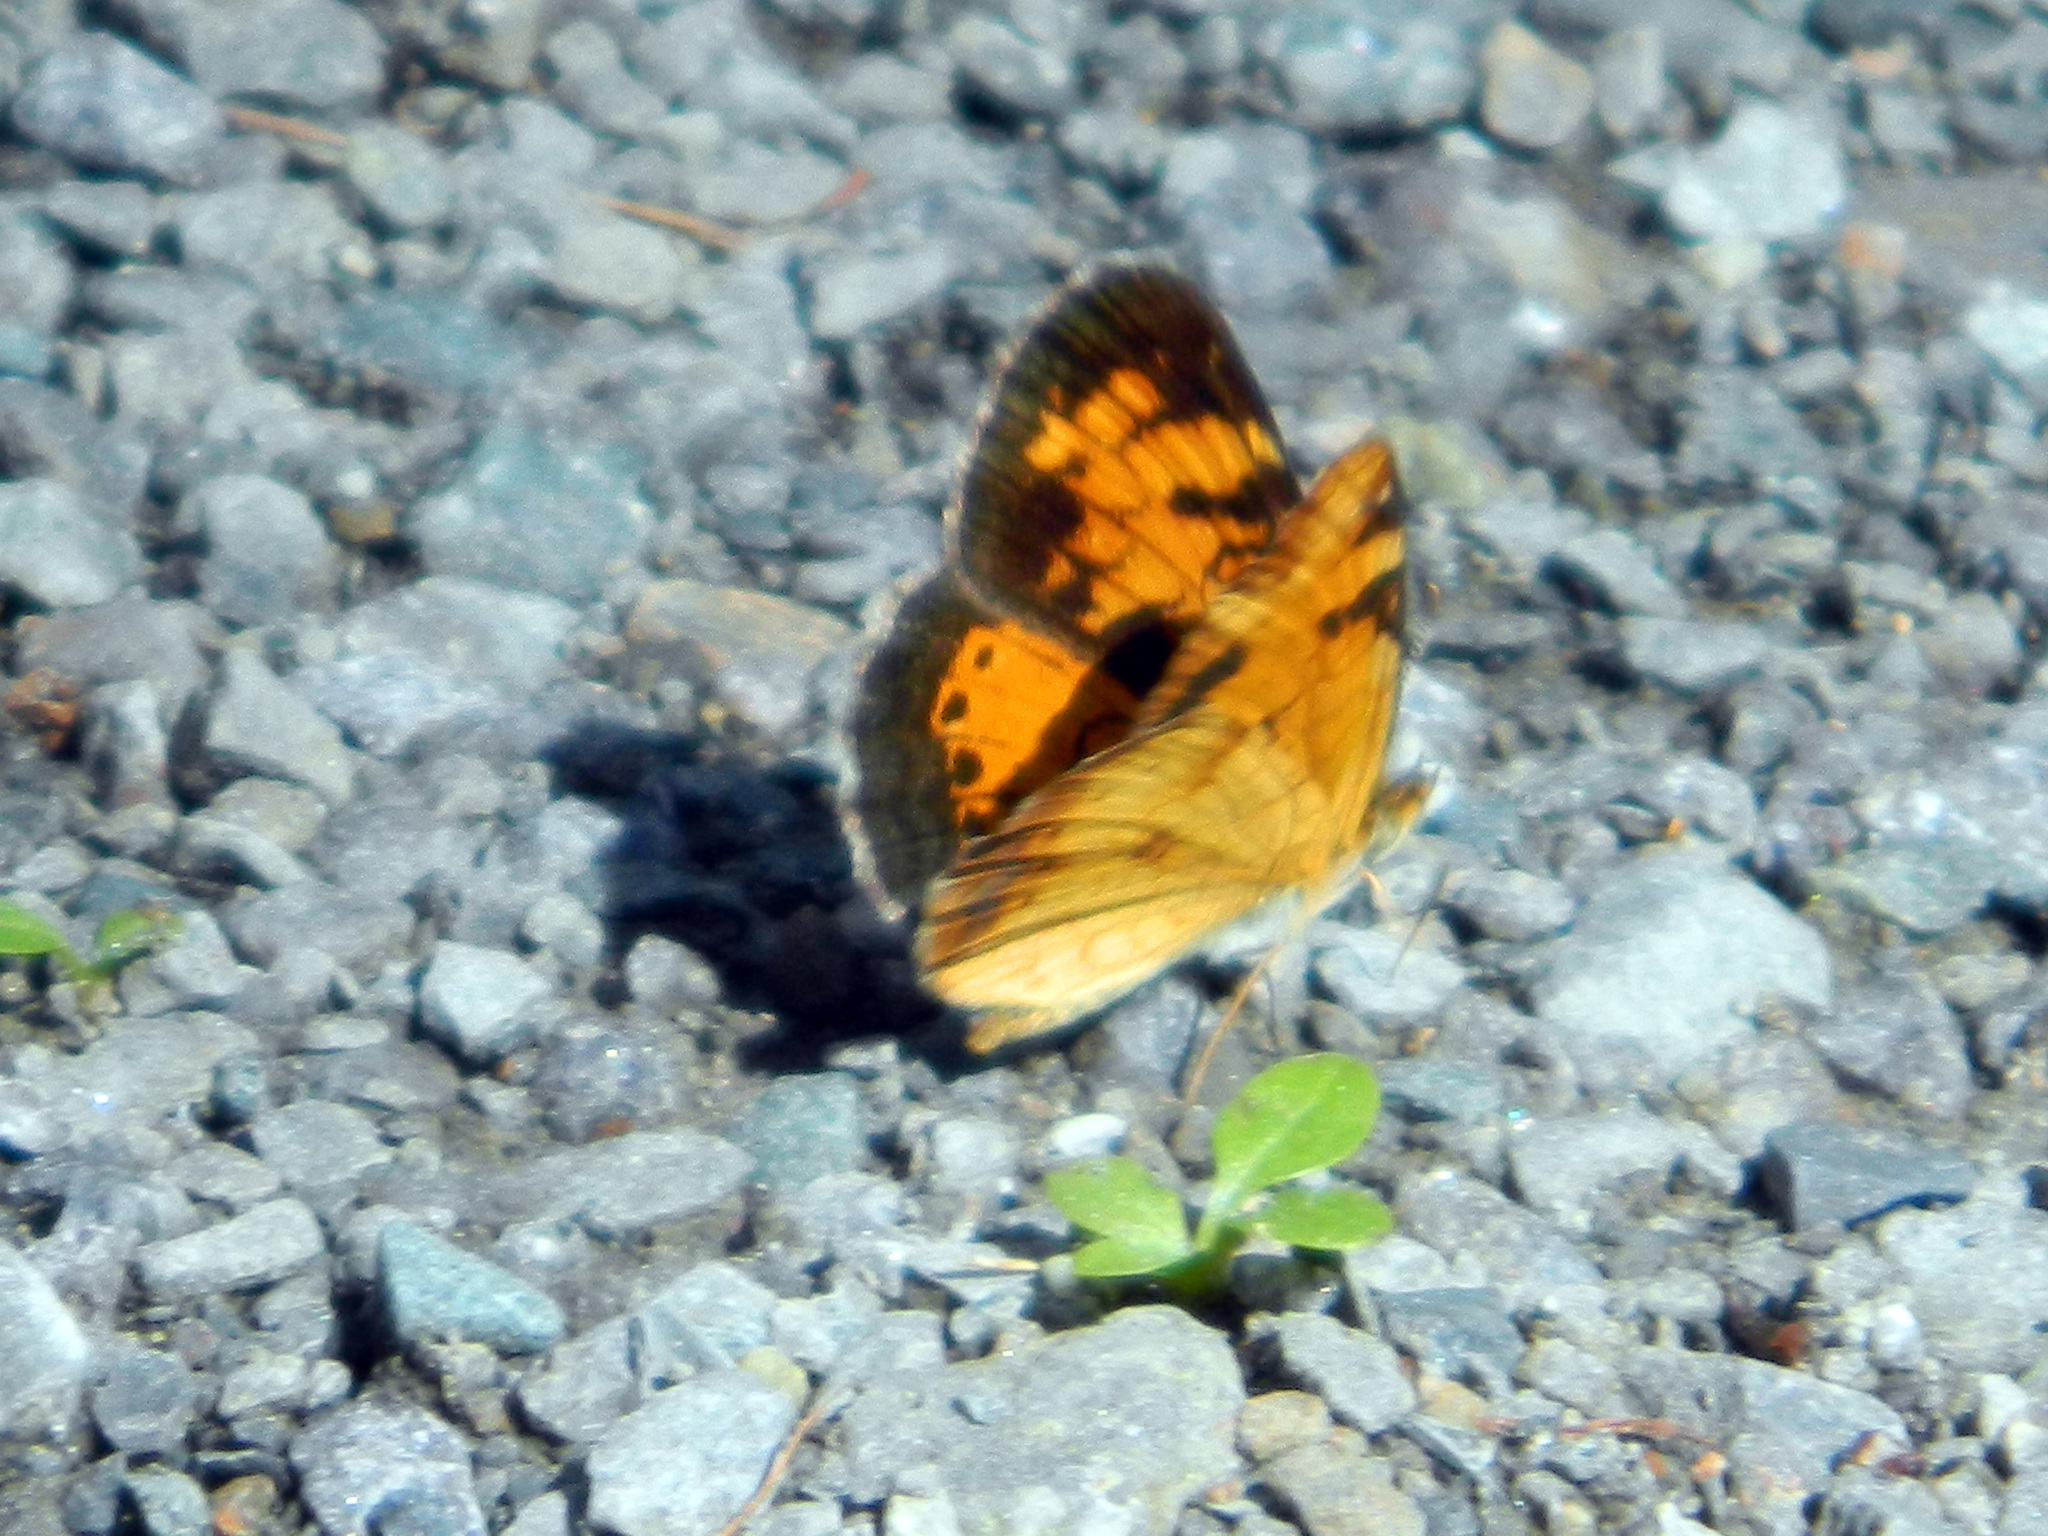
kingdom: Animalia
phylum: Arthropoda
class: Insecta
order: Lepidoptera
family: Nymphalidae
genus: Phyciodes
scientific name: Phyciodes tharos
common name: Pearl crescent
